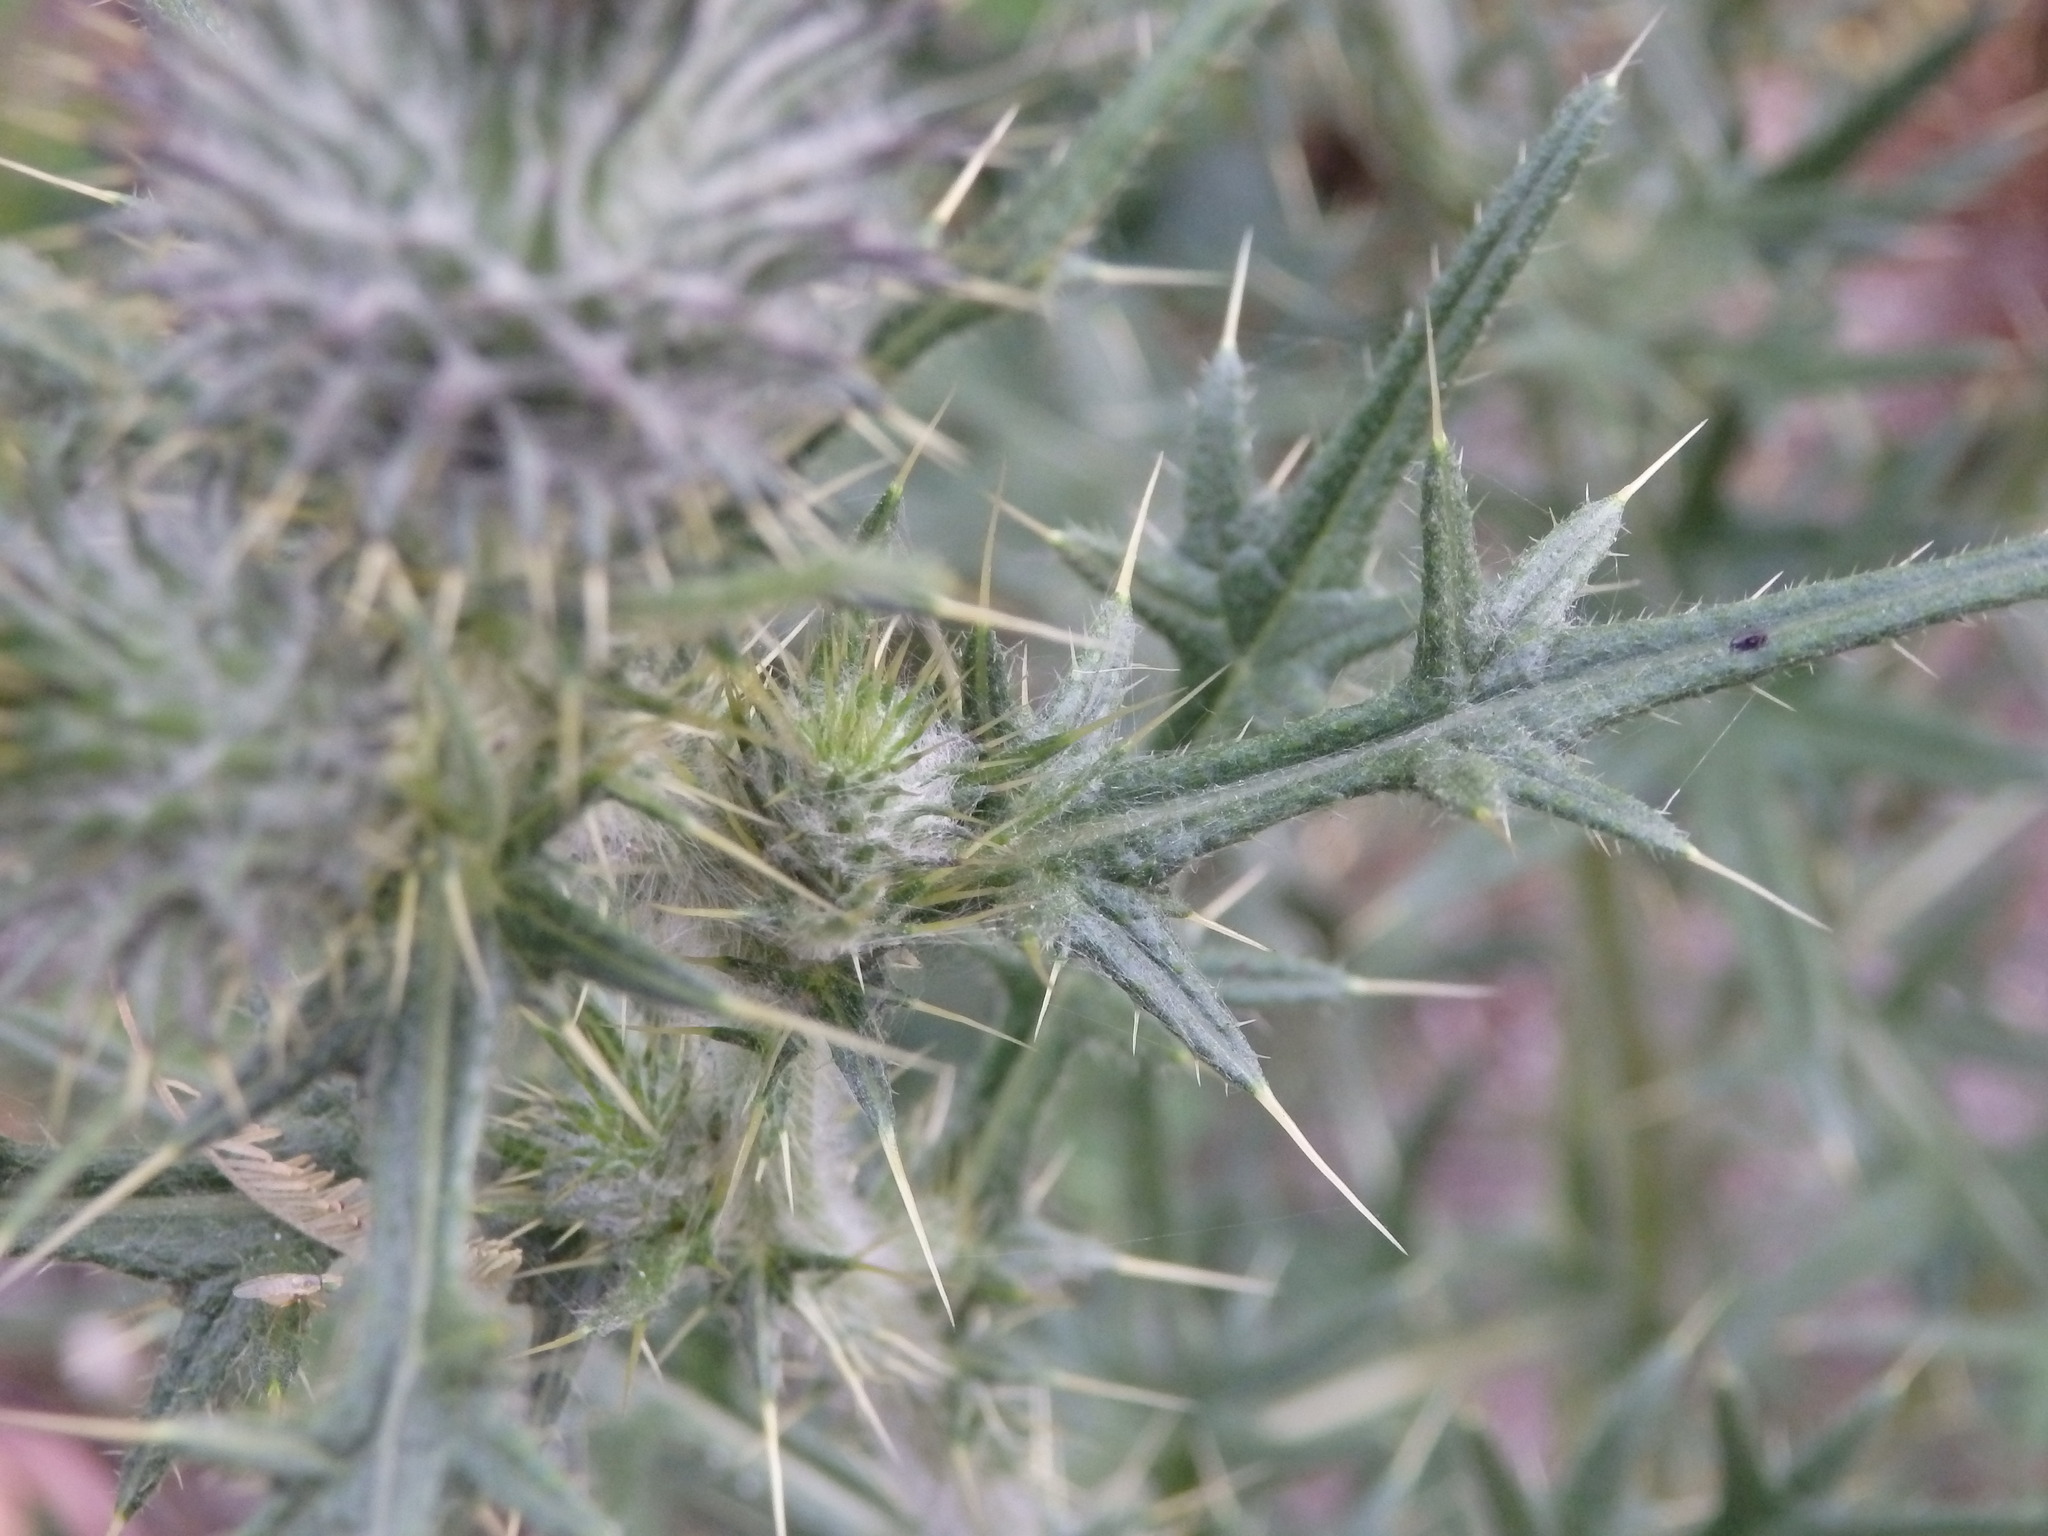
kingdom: Plantae
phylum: Tracheophyta
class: Magnoliopsida
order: Asterales
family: Asteraceae
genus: Cirsium
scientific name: Cirsium vulgare
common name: Bull thistle
